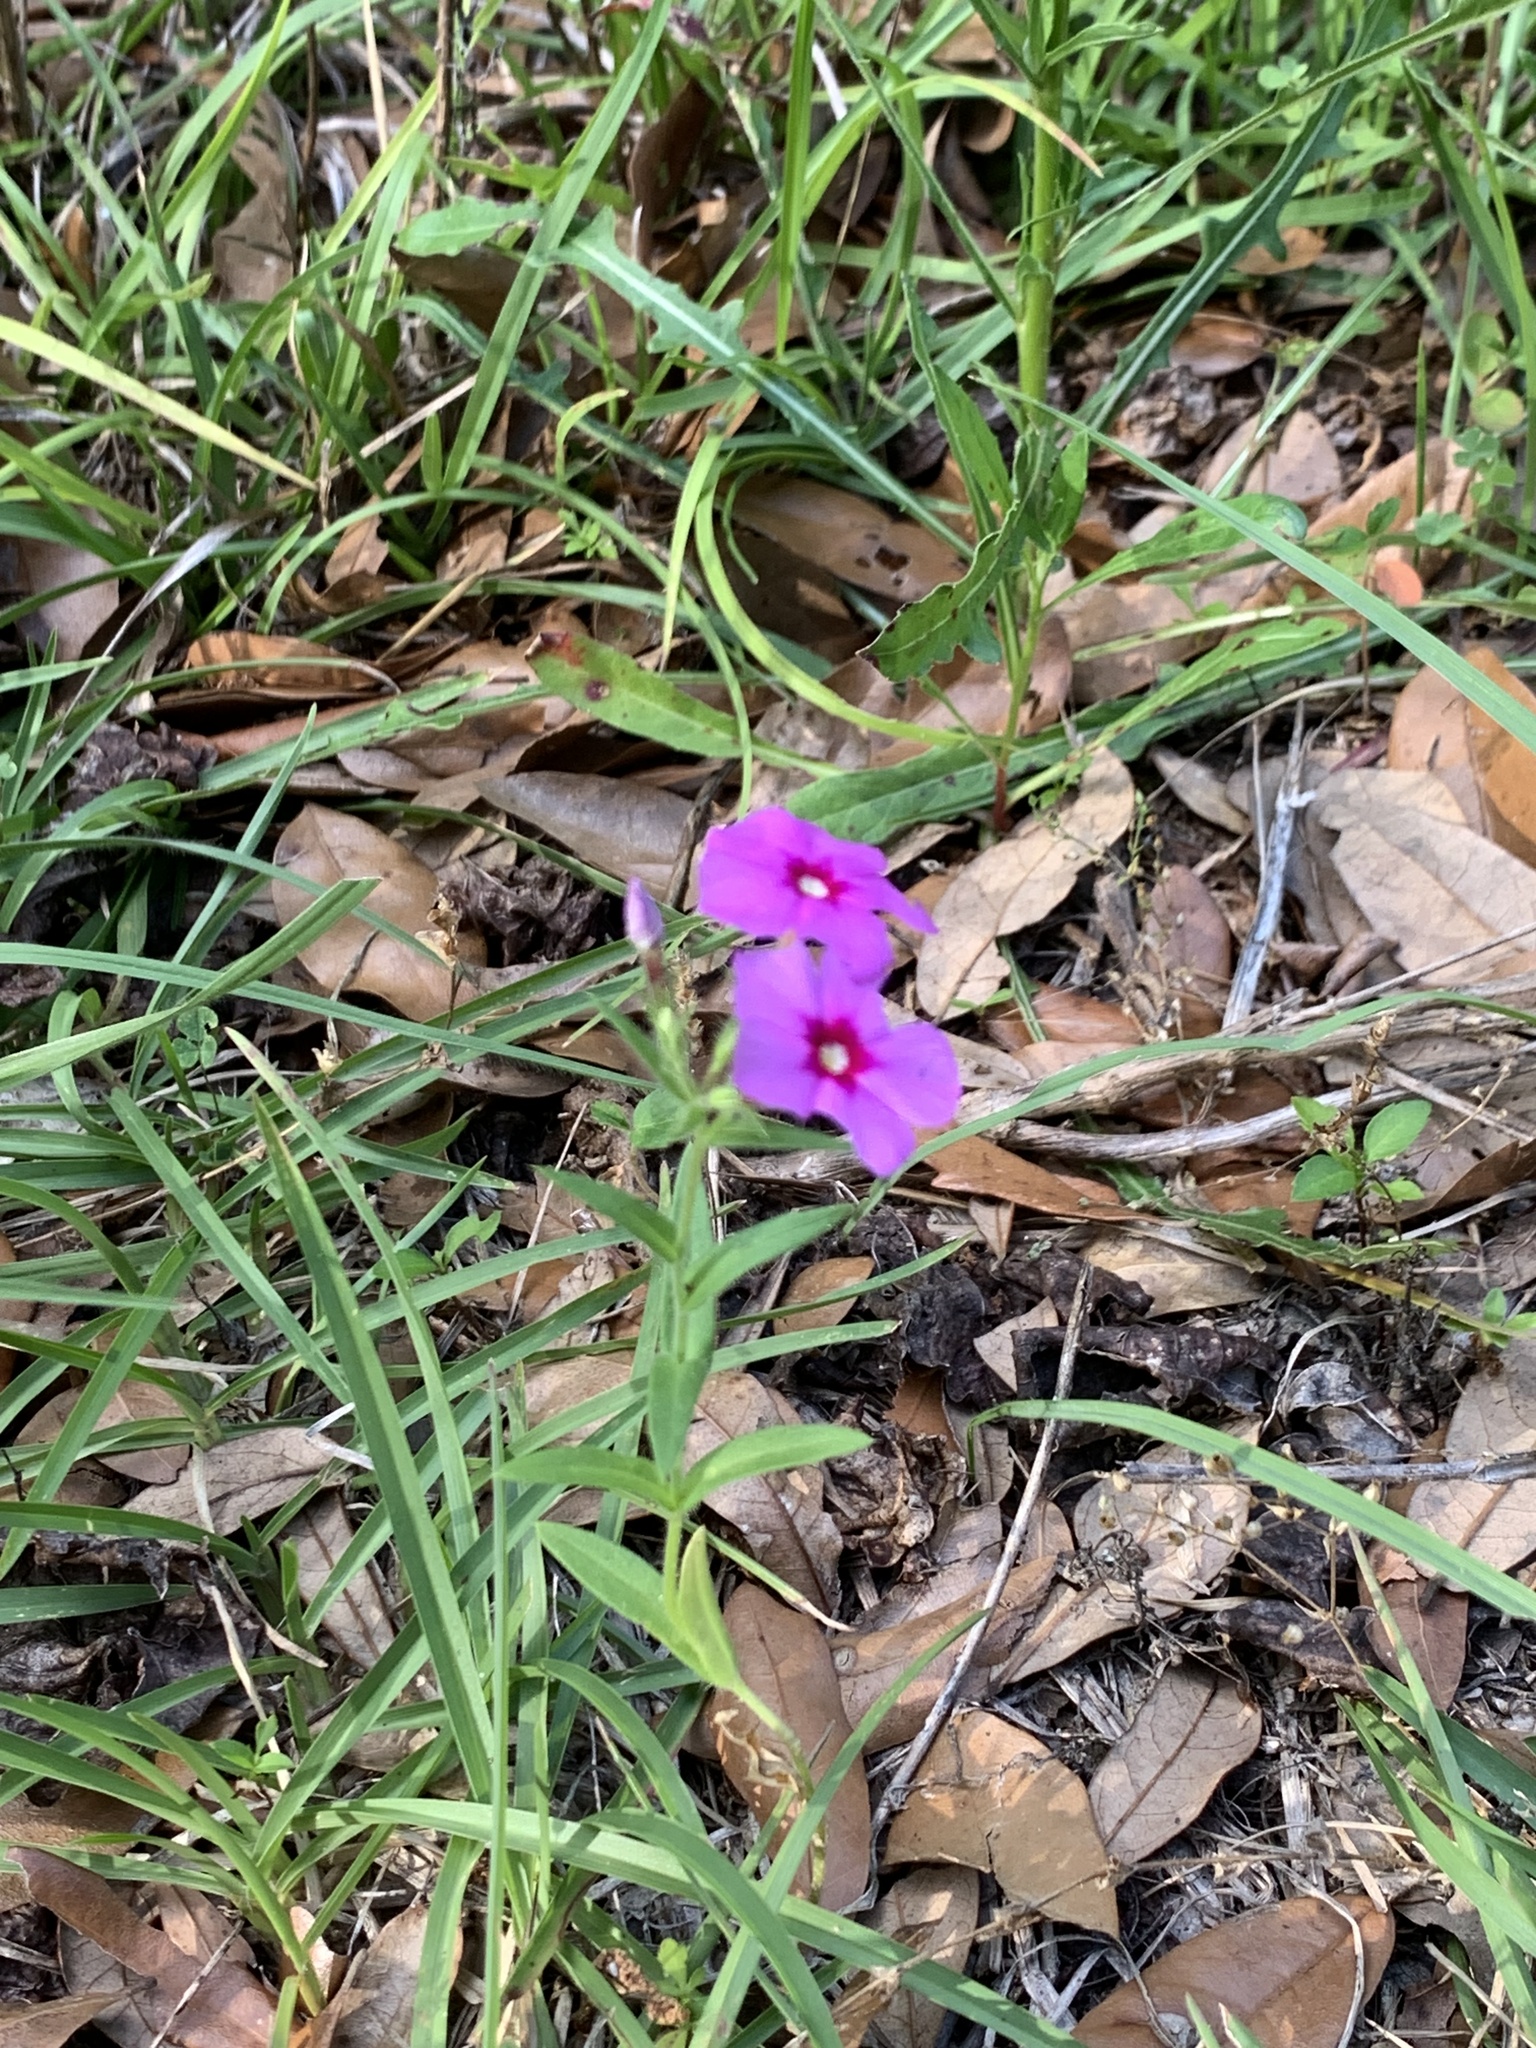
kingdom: Plantae
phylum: Tracheophyta
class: Magnoliopsida
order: Ericales
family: Polemoniaceae
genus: Phlox
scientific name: Phlox drummondii
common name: Drummond's phlox
